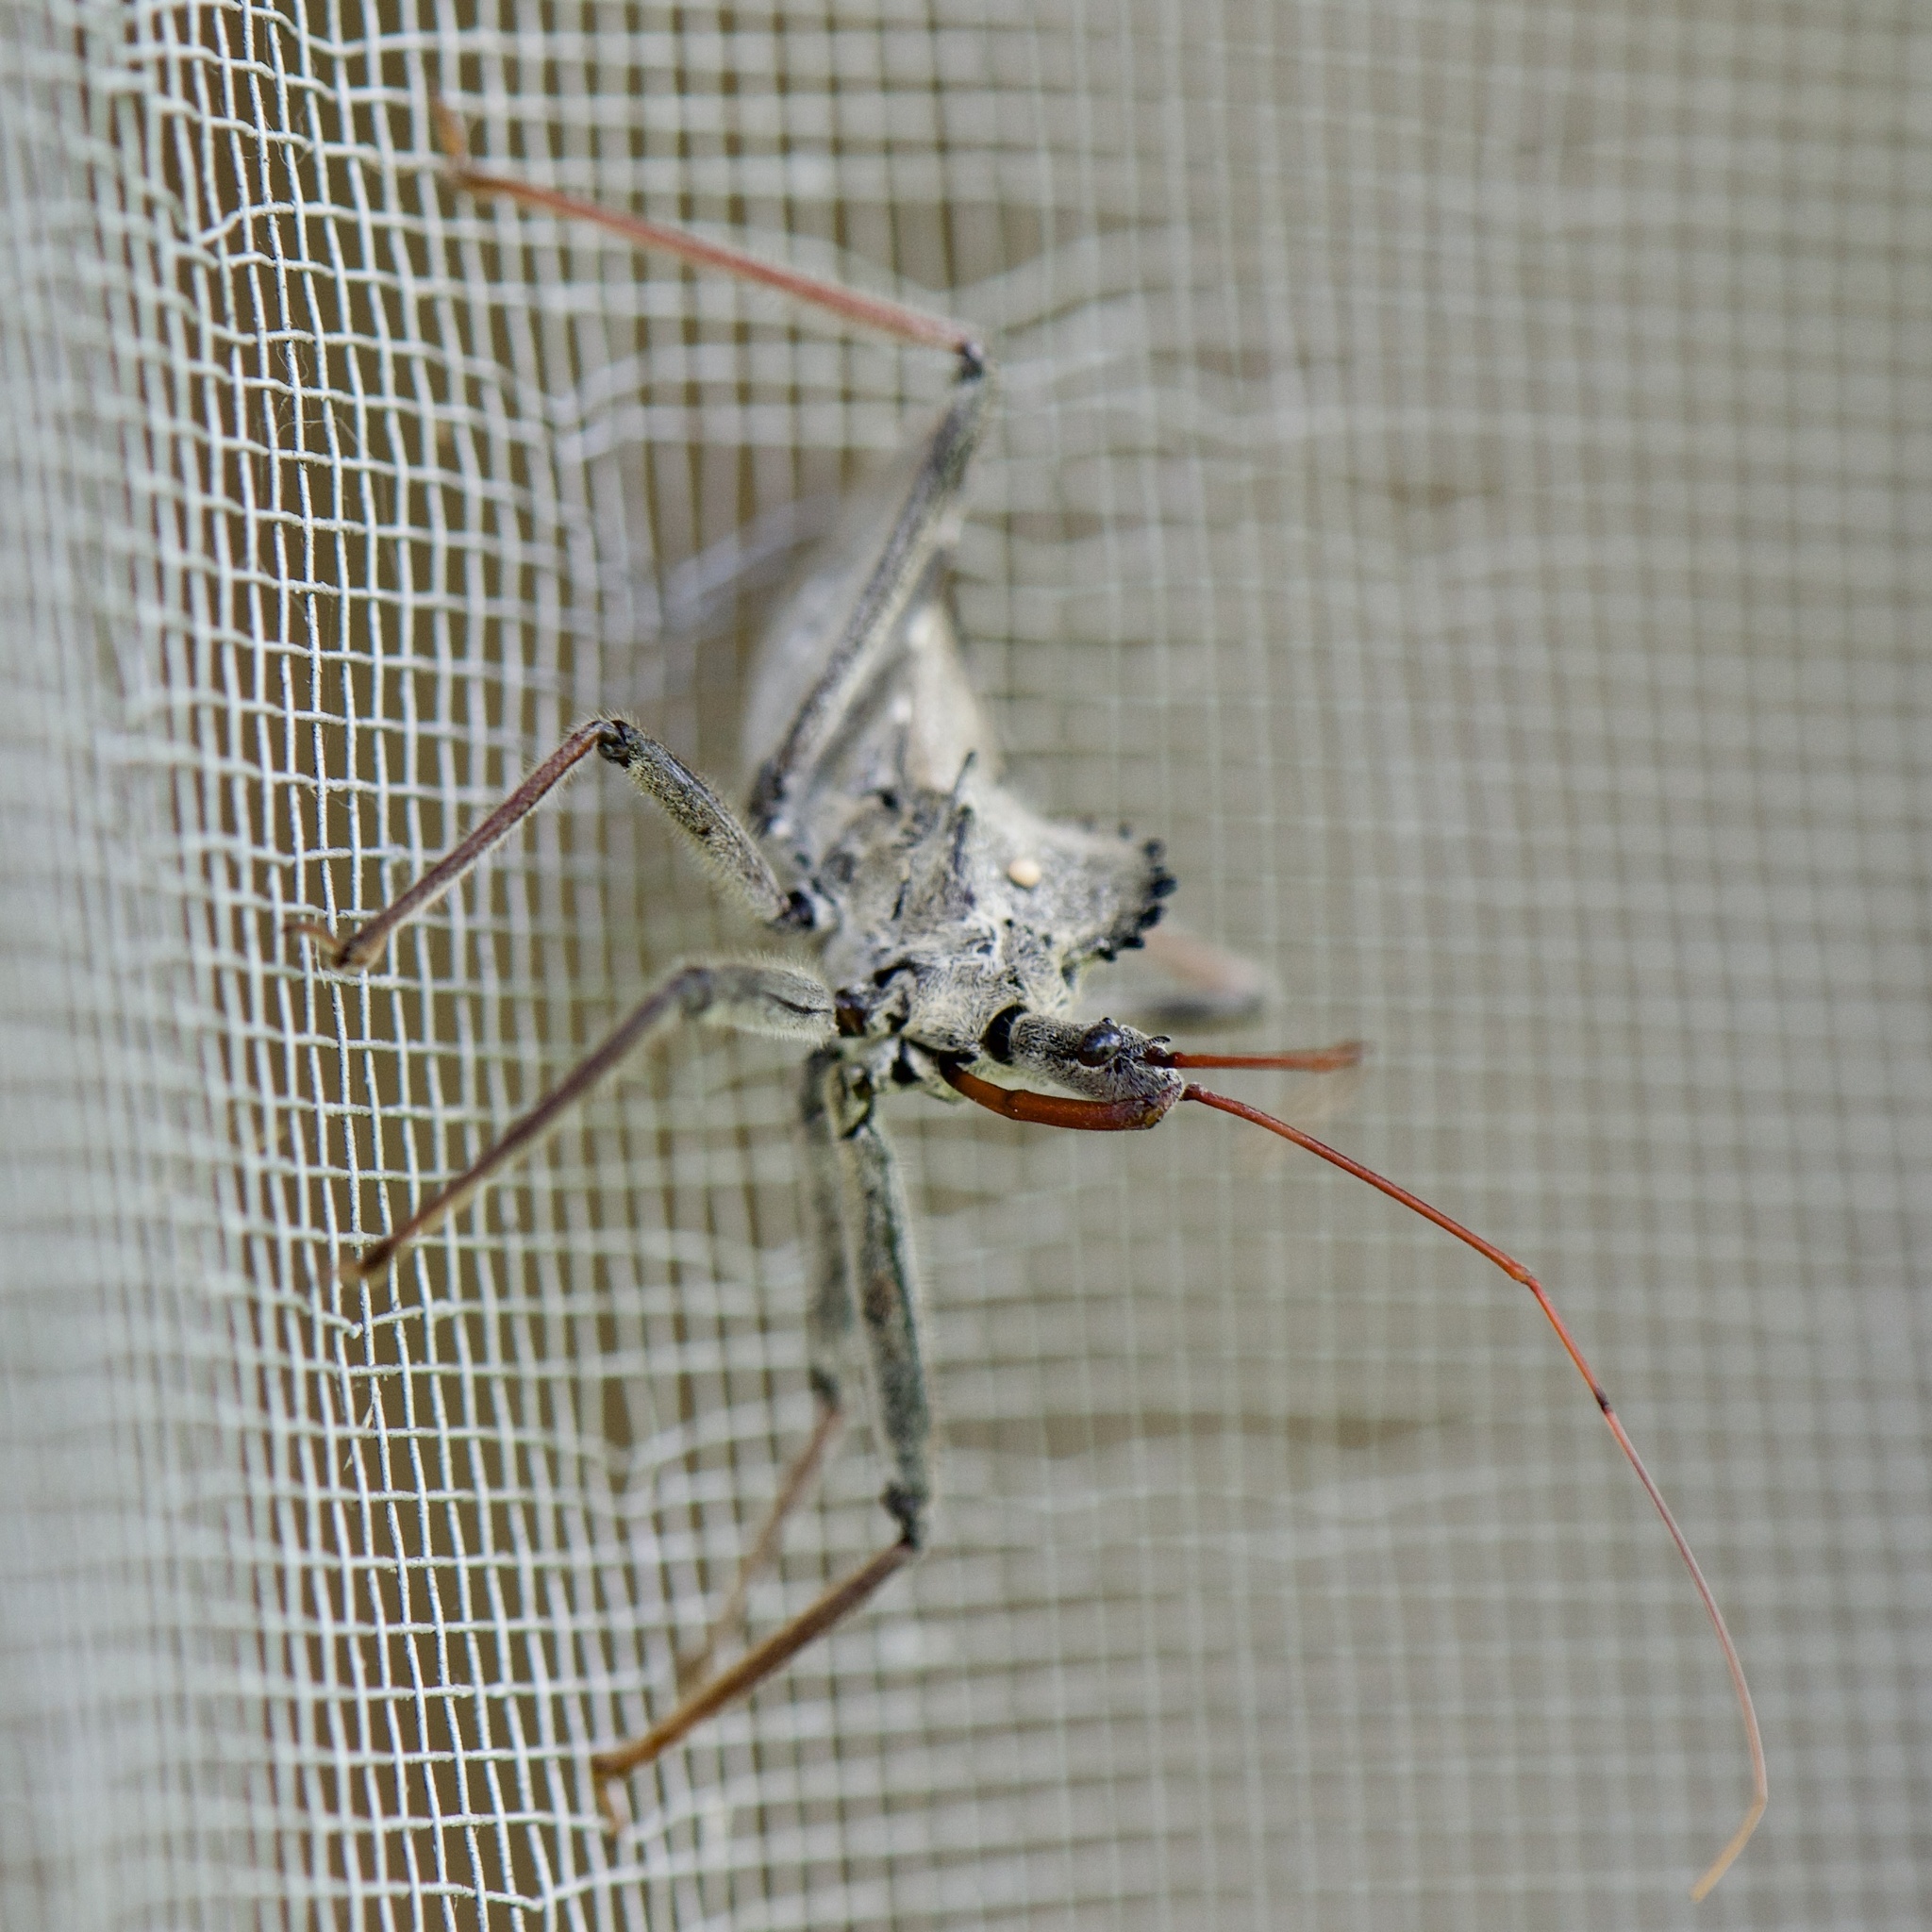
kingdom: Animalia
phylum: Arthropoda
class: Insecta
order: Hemiptera
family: Reduviidae
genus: Arilus
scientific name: Arilus cristatus
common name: North american wheel bug
